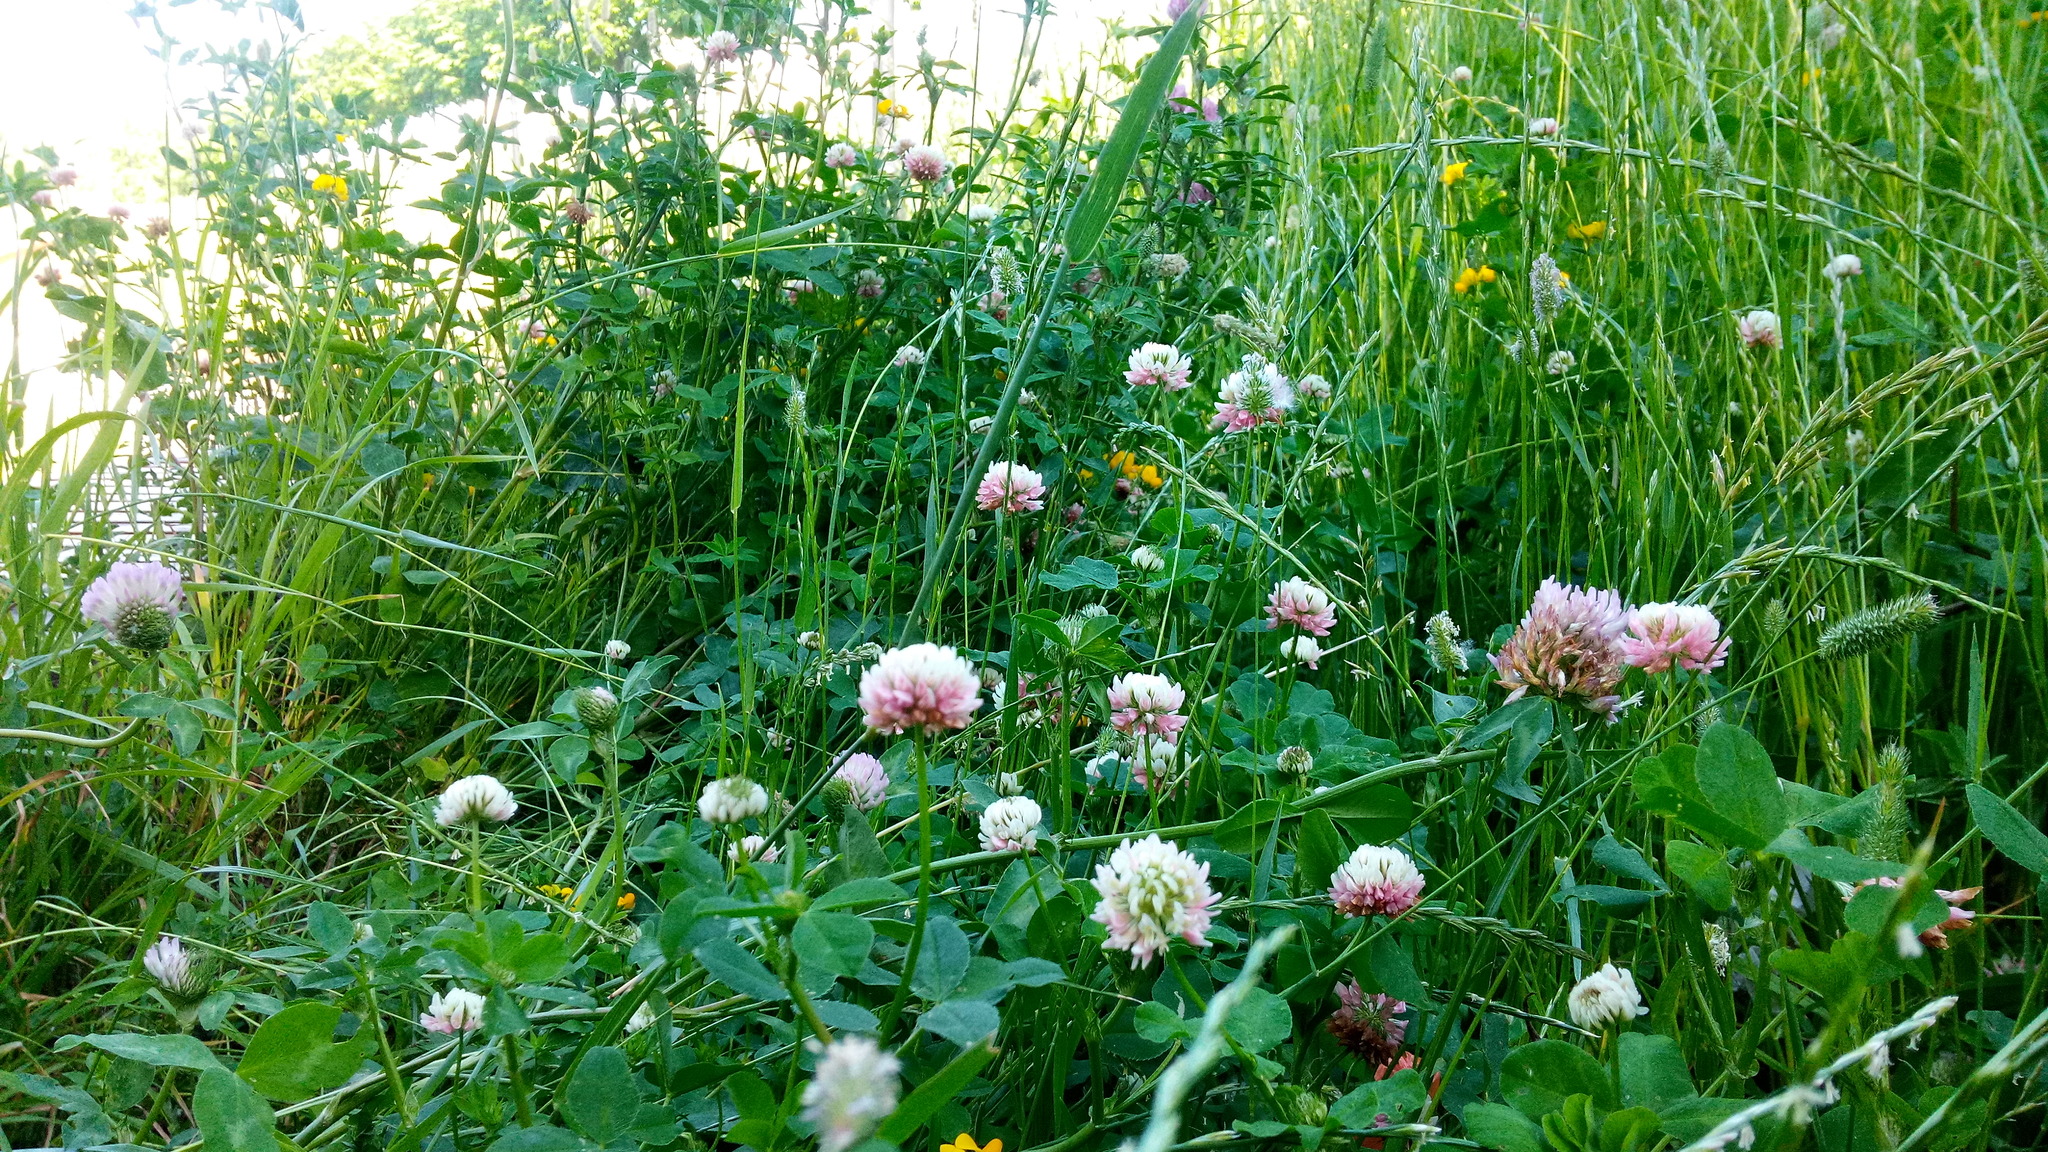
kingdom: Plantae
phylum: Tracheophyta
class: Magnoliopsida
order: Fabales
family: Fabaceae
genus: Trifolium
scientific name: Trifolium hybridum
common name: Alsike clover
